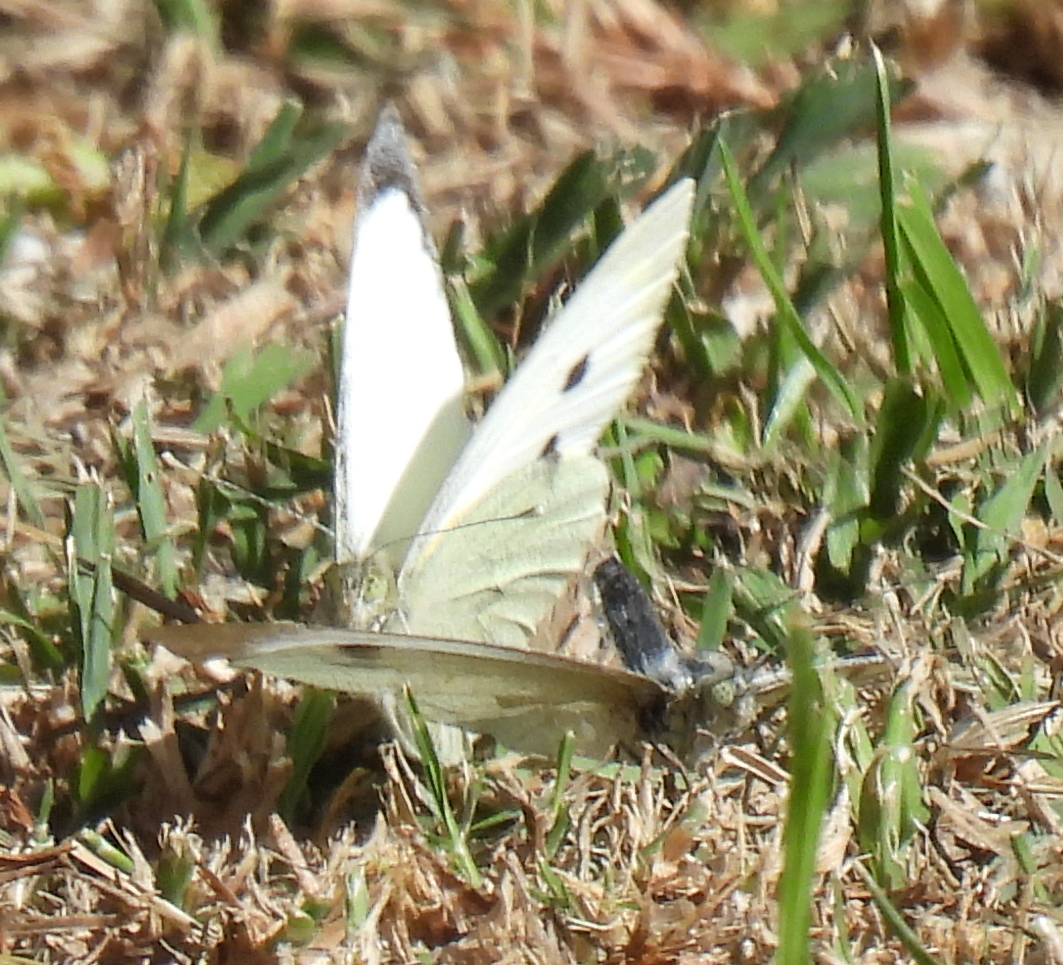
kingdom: Animalia
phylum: Arthropoda
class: Insecta
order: Lepidoptera
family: Pieridae
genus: Pieris
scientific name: Pieris brassicae
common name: Large white
